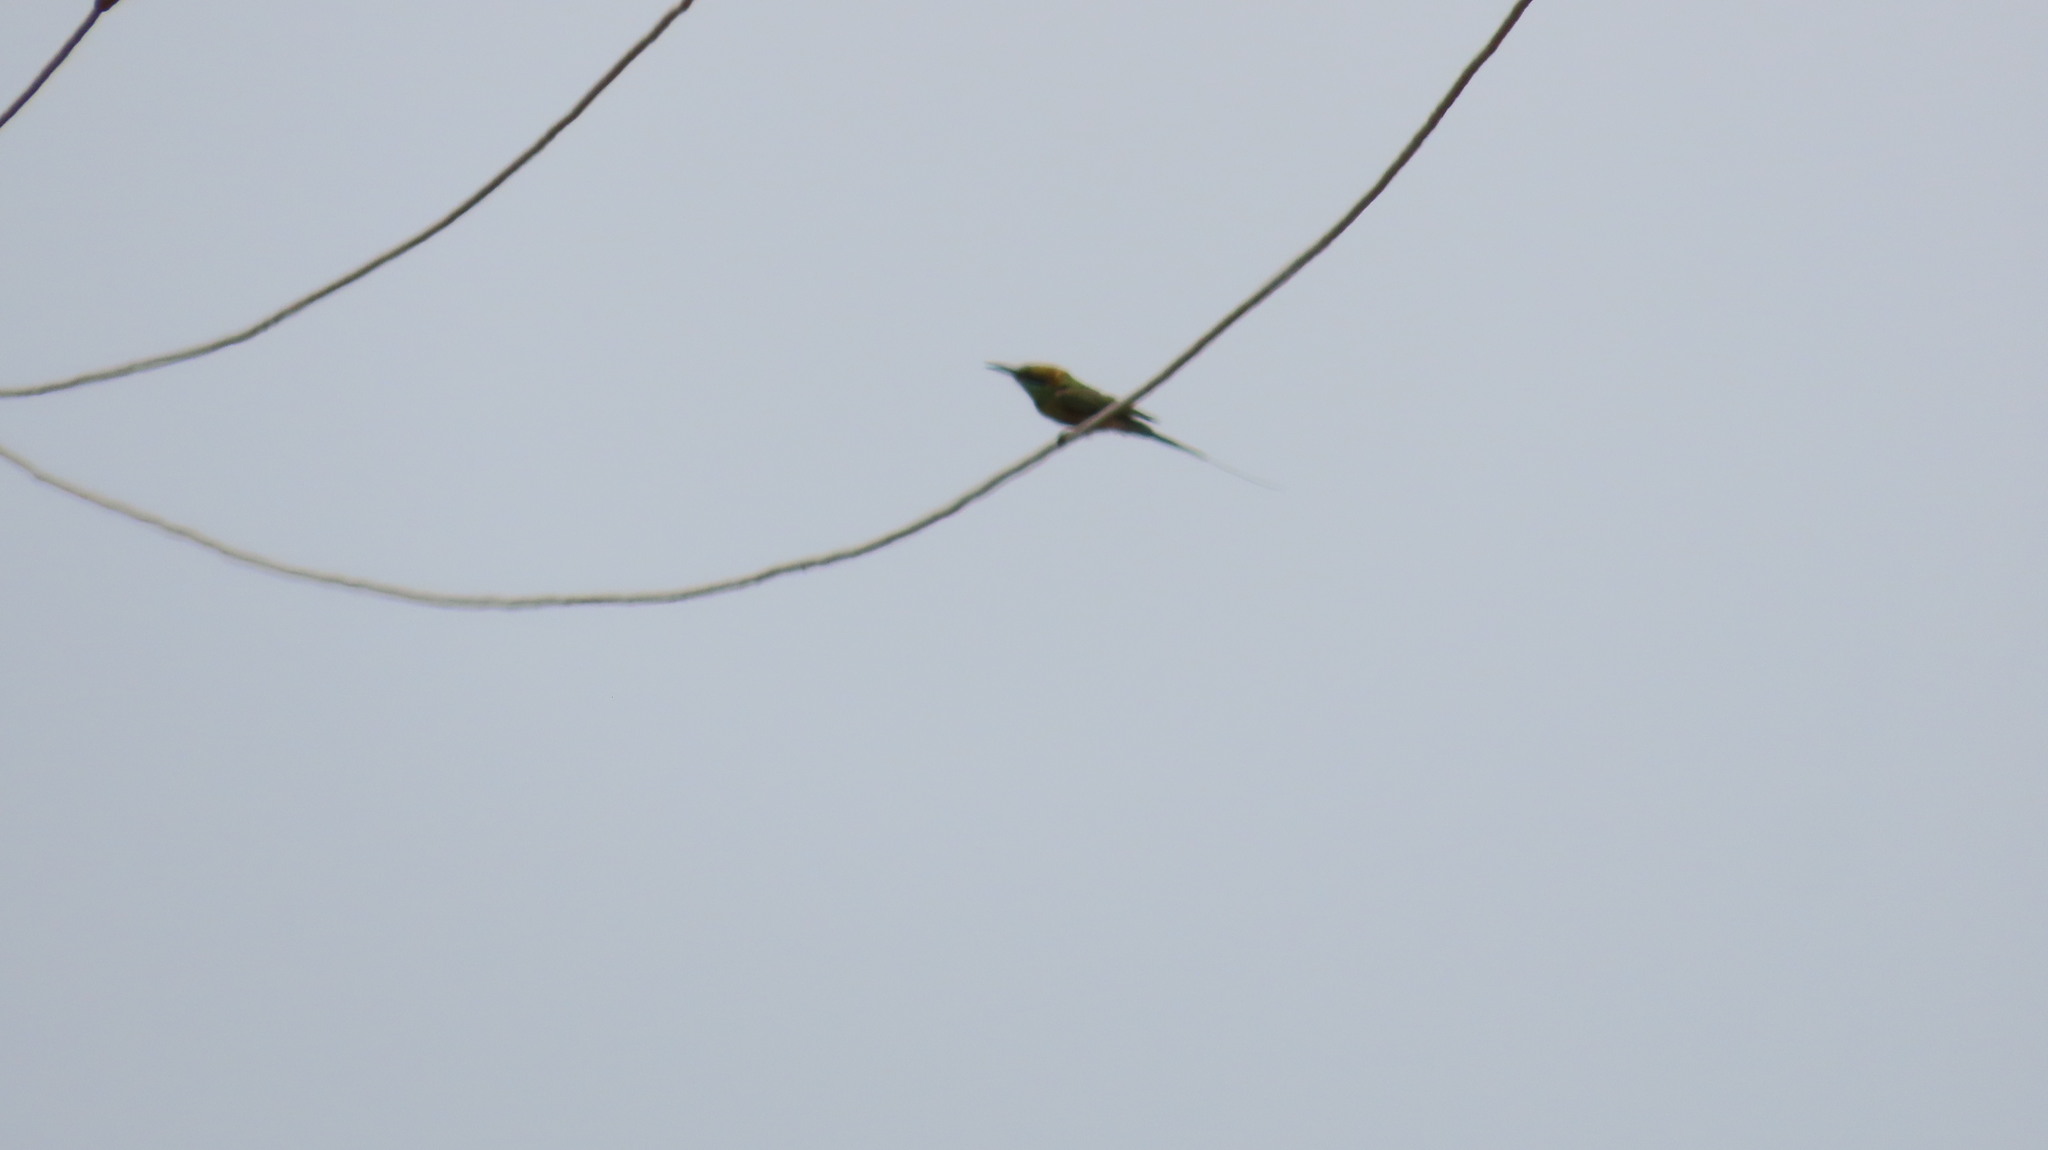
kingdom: Animalia
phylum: Chordata
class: Aves
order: Coraciiformes
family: Meropidae
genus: Merops
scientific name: Merops orientalis
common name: Green bee-eater
